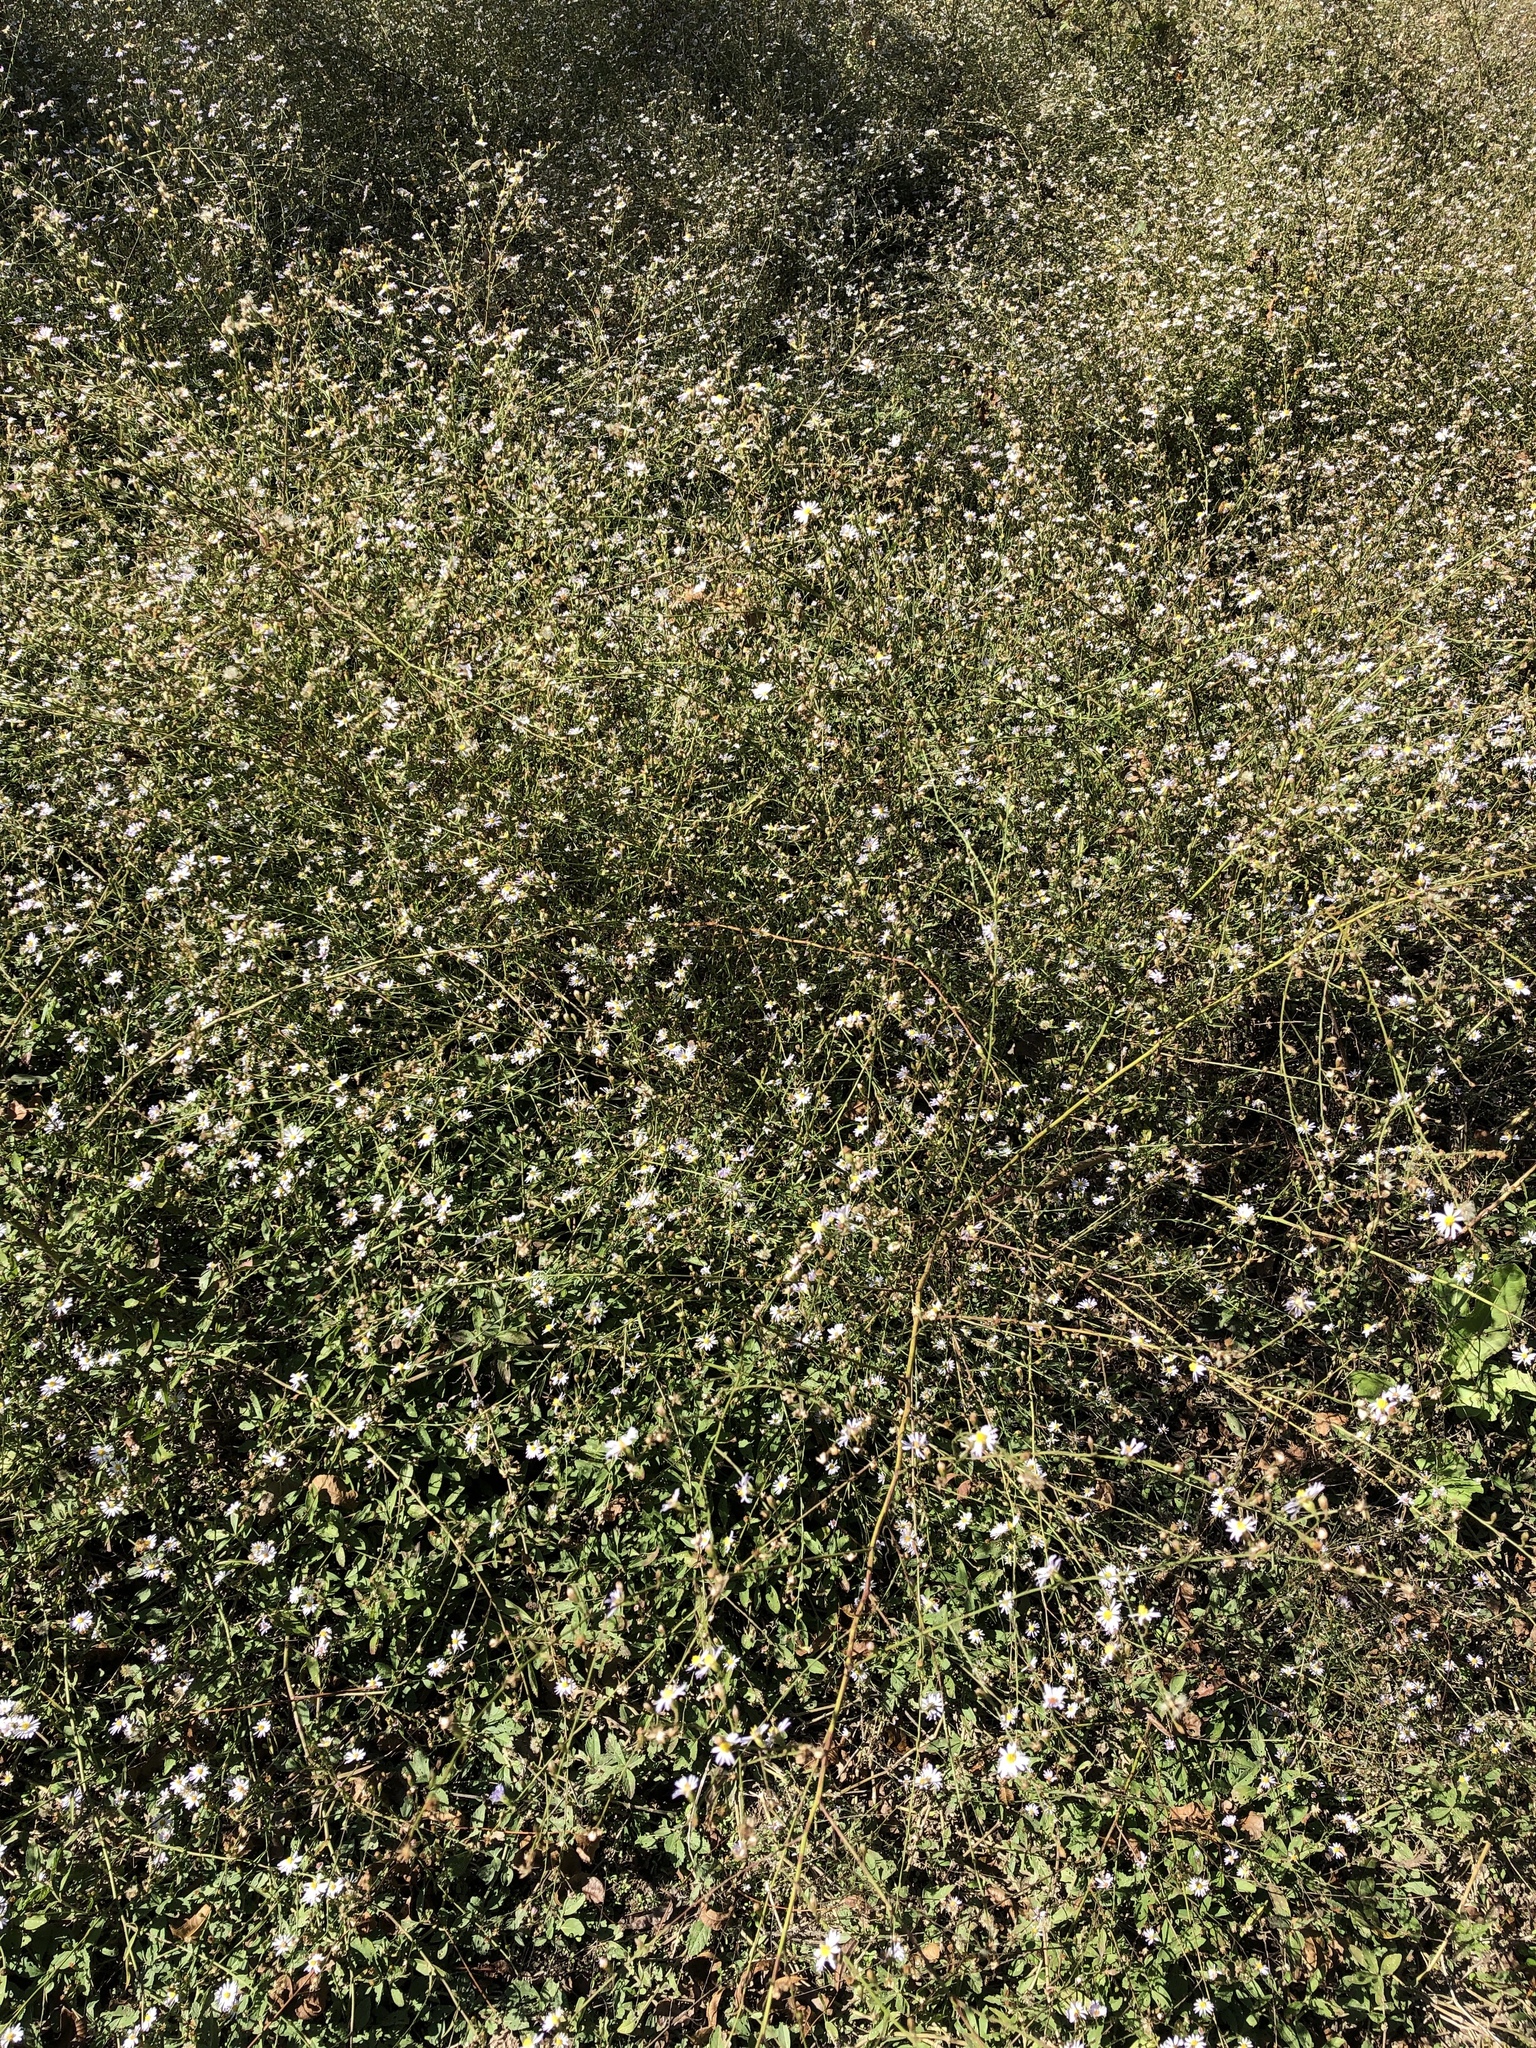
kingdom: Plantae
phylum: Tracheophyta
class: Magnoliopsida
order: Asterales
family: Asteraceae
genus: Symphyotrichum
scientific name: Symphyotrichum divaricatum
